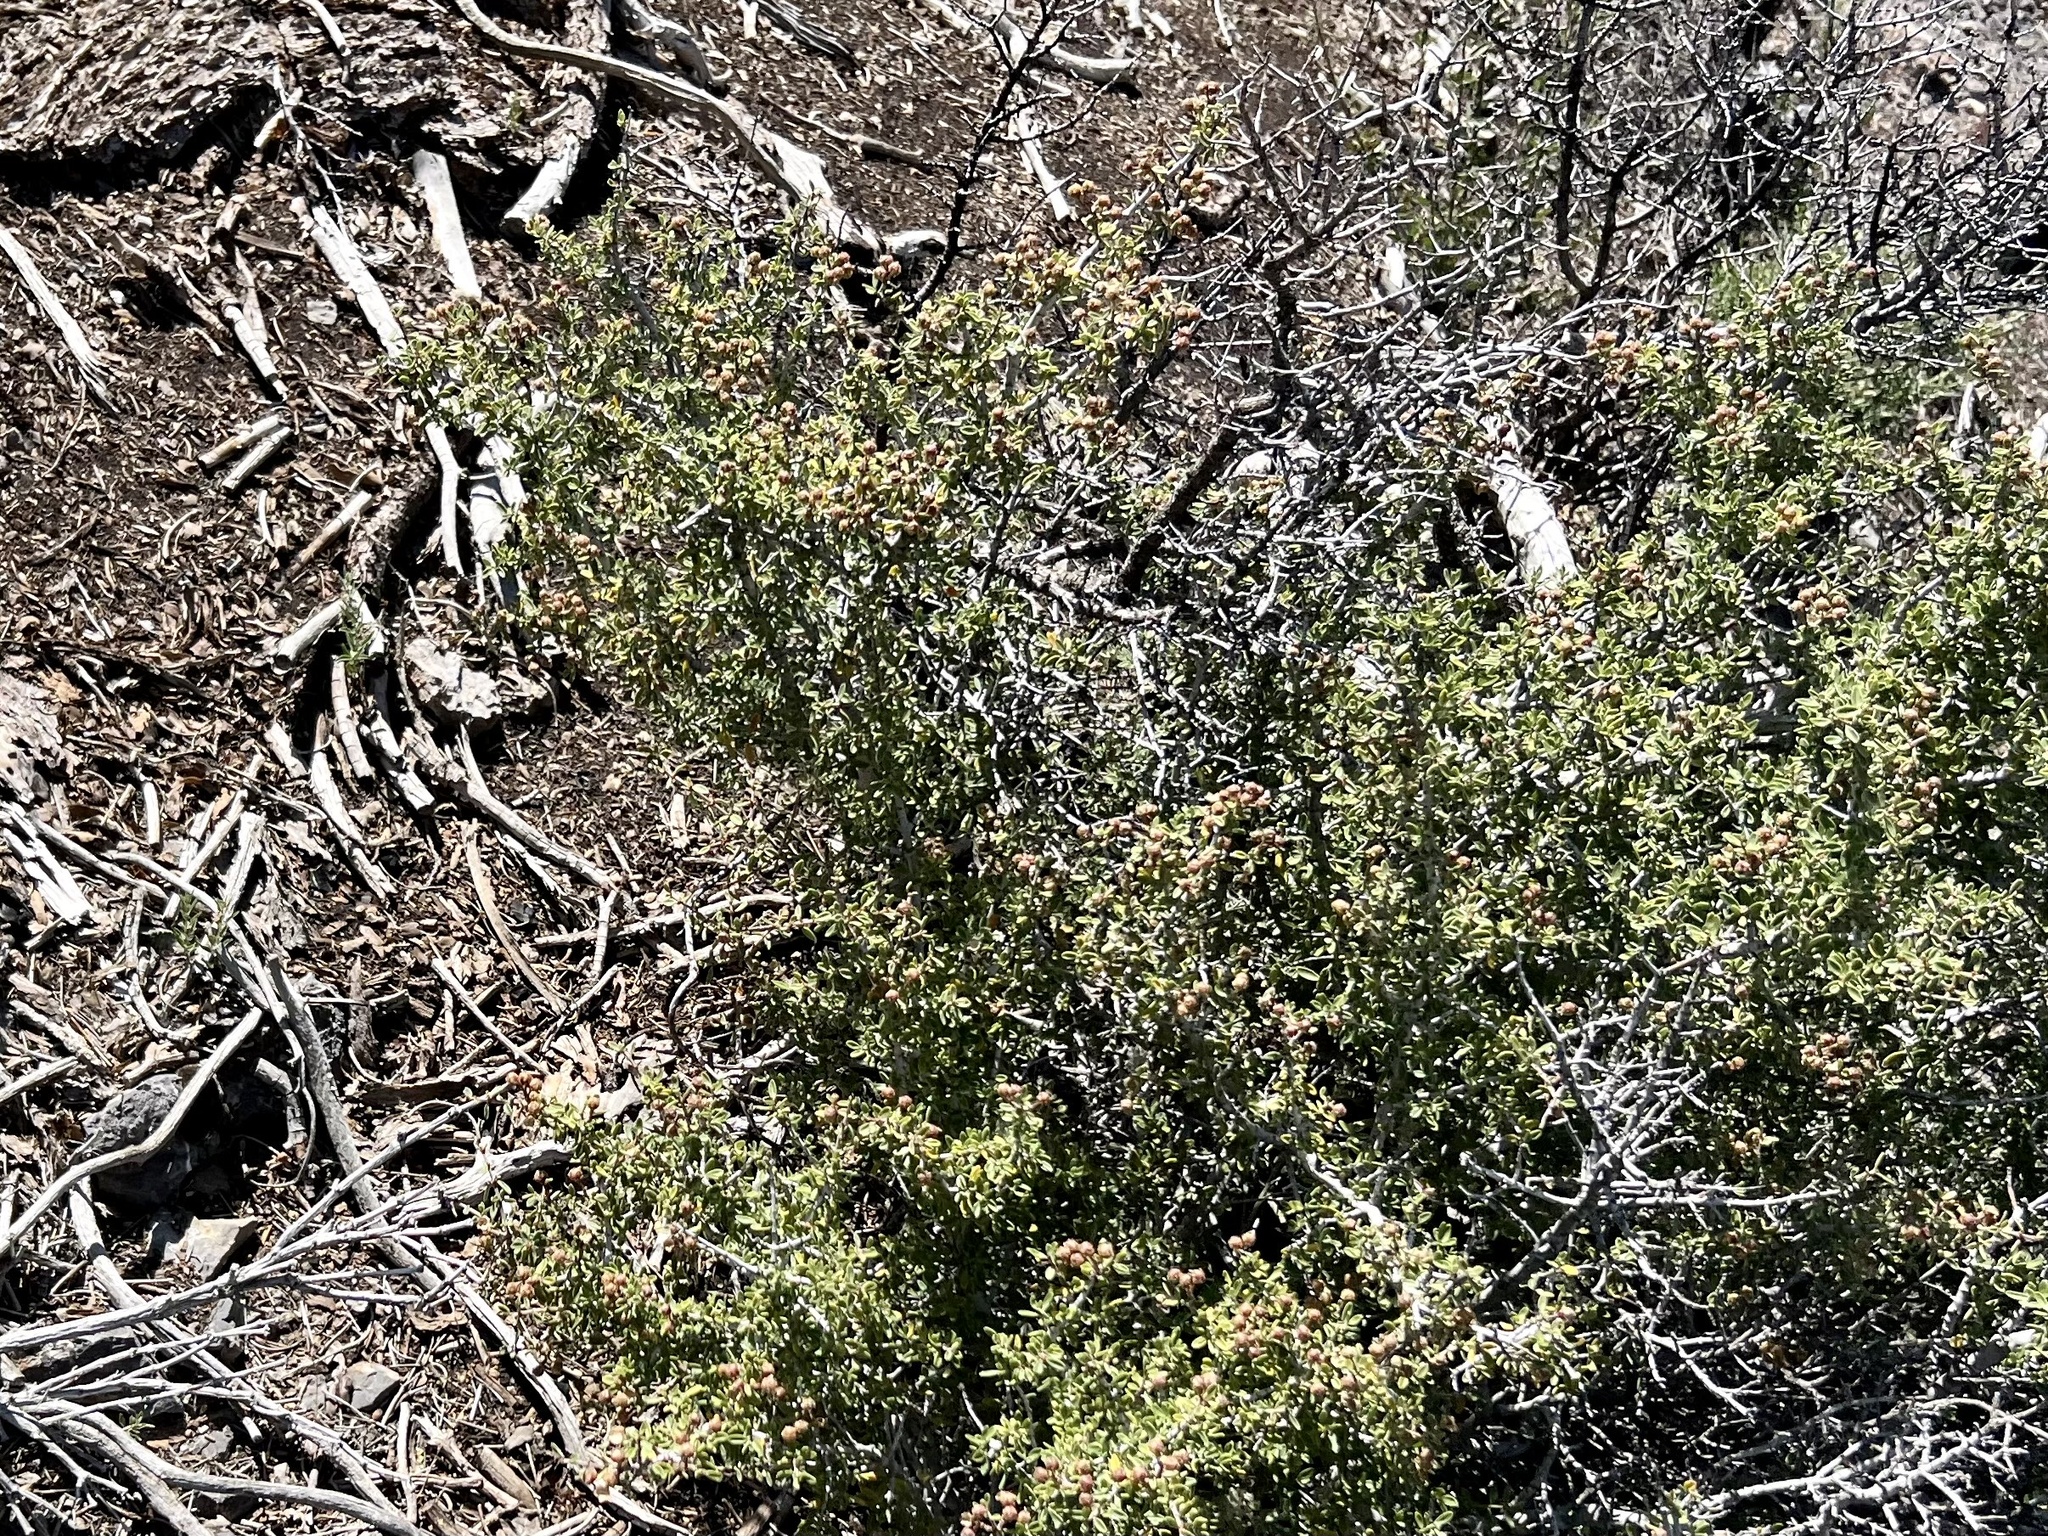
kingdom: Plantae
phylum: Tracheophyta
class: Magnoliopsida
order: Rosales
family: Rhamnaceae
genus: Ceanothus
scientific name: Ceanothus pauciflorus
